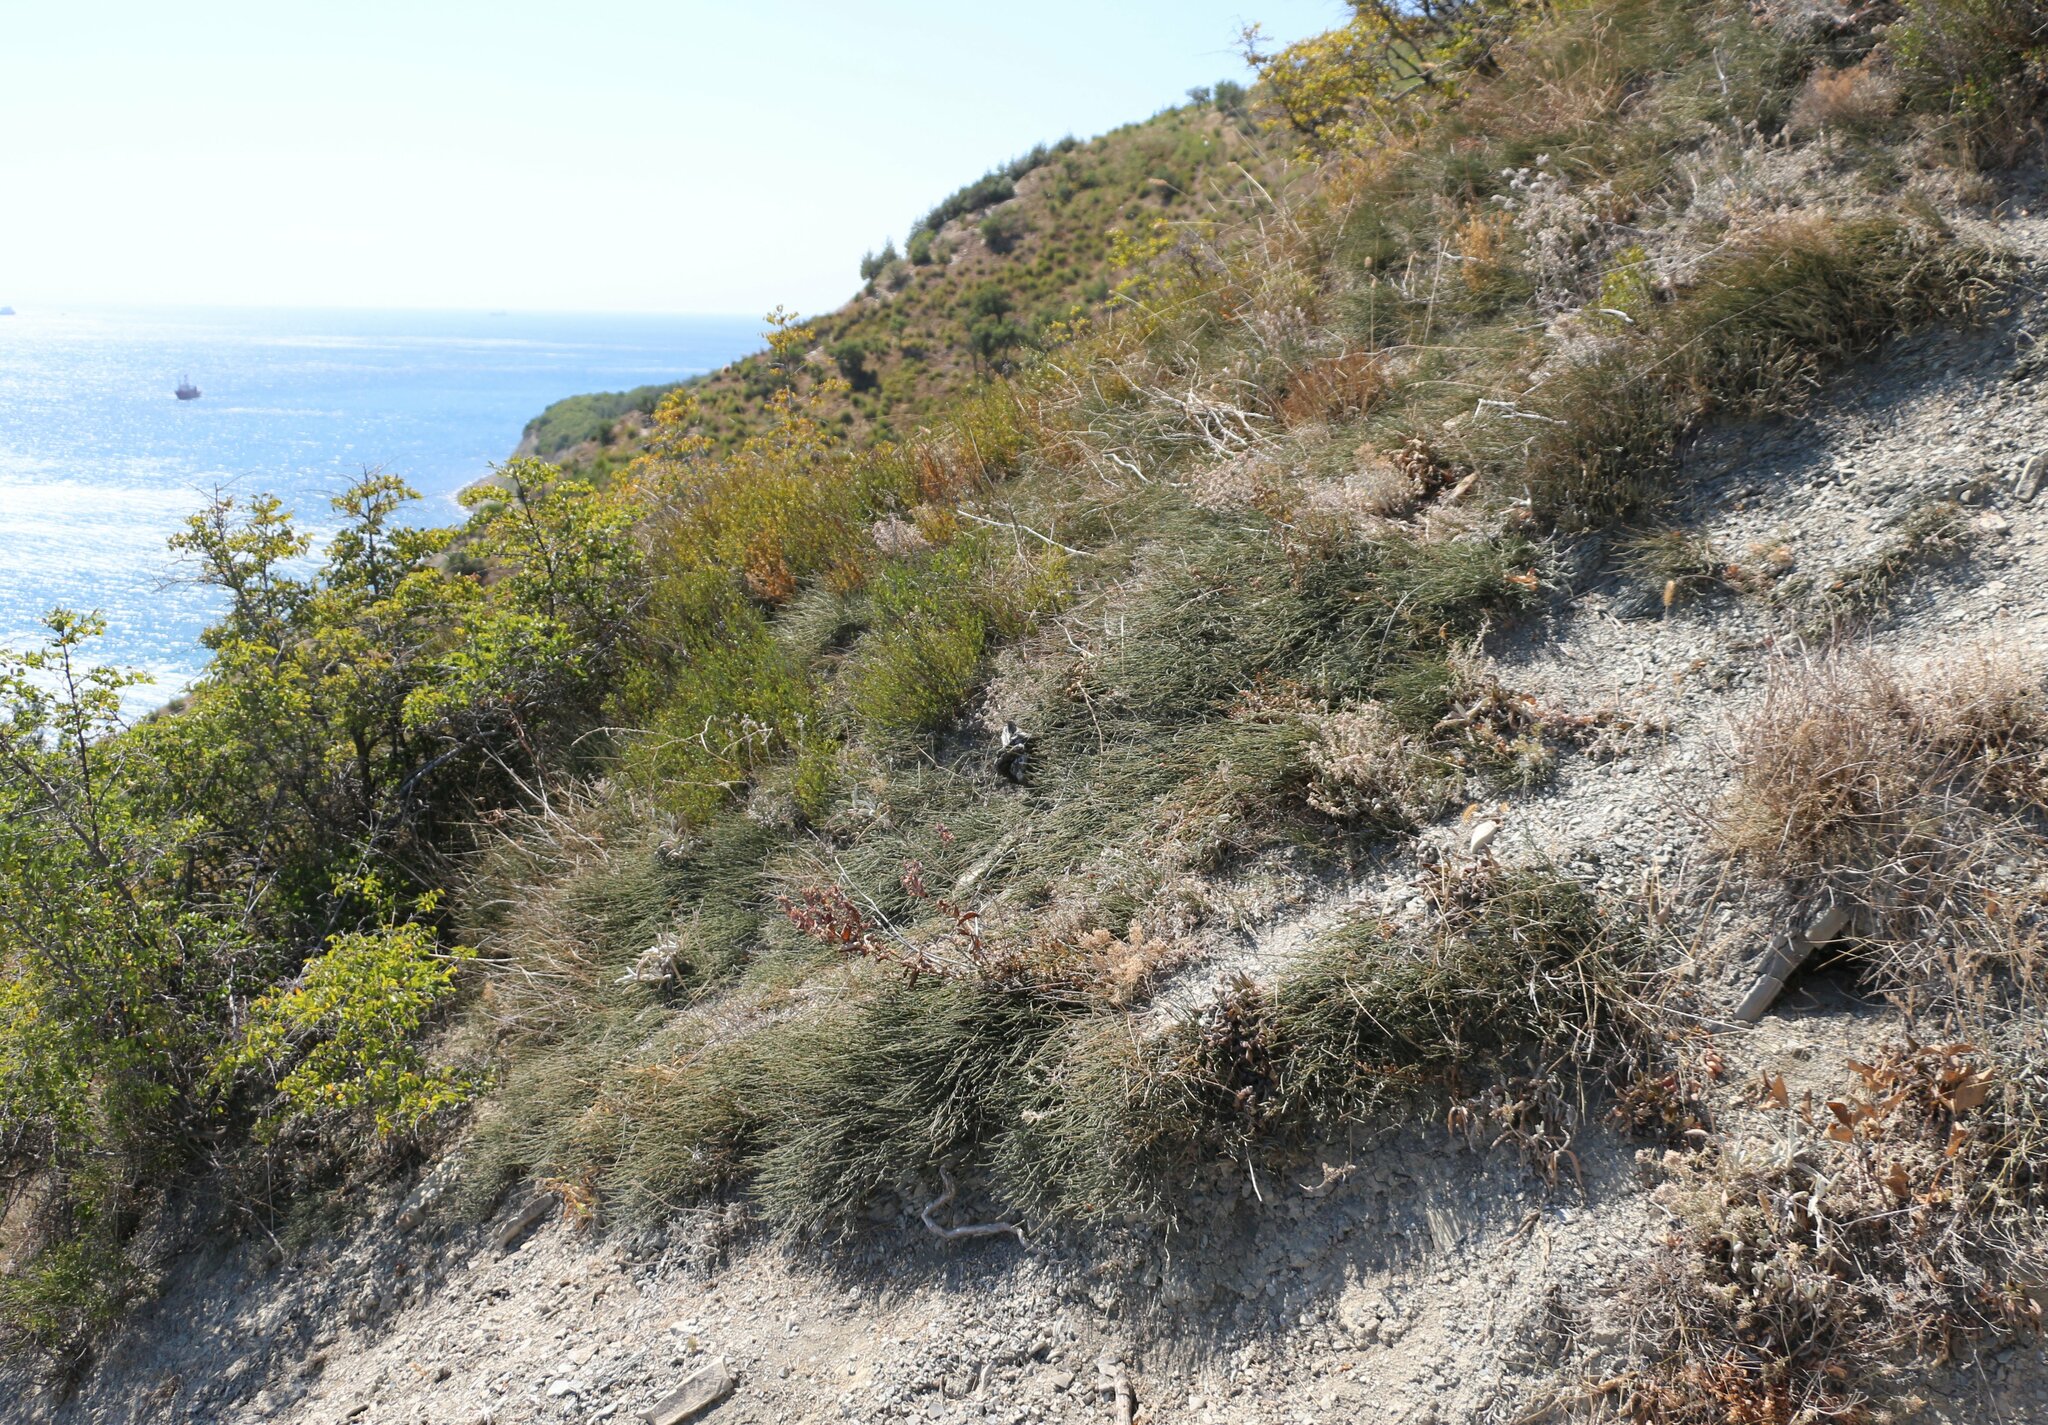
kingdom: Plantae
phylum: Tracheophyta
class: Gnetopsida
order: Ephedrales
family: Ephedraceae
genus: Ephedra
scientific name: Ephedra distachya
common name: Sea grape
